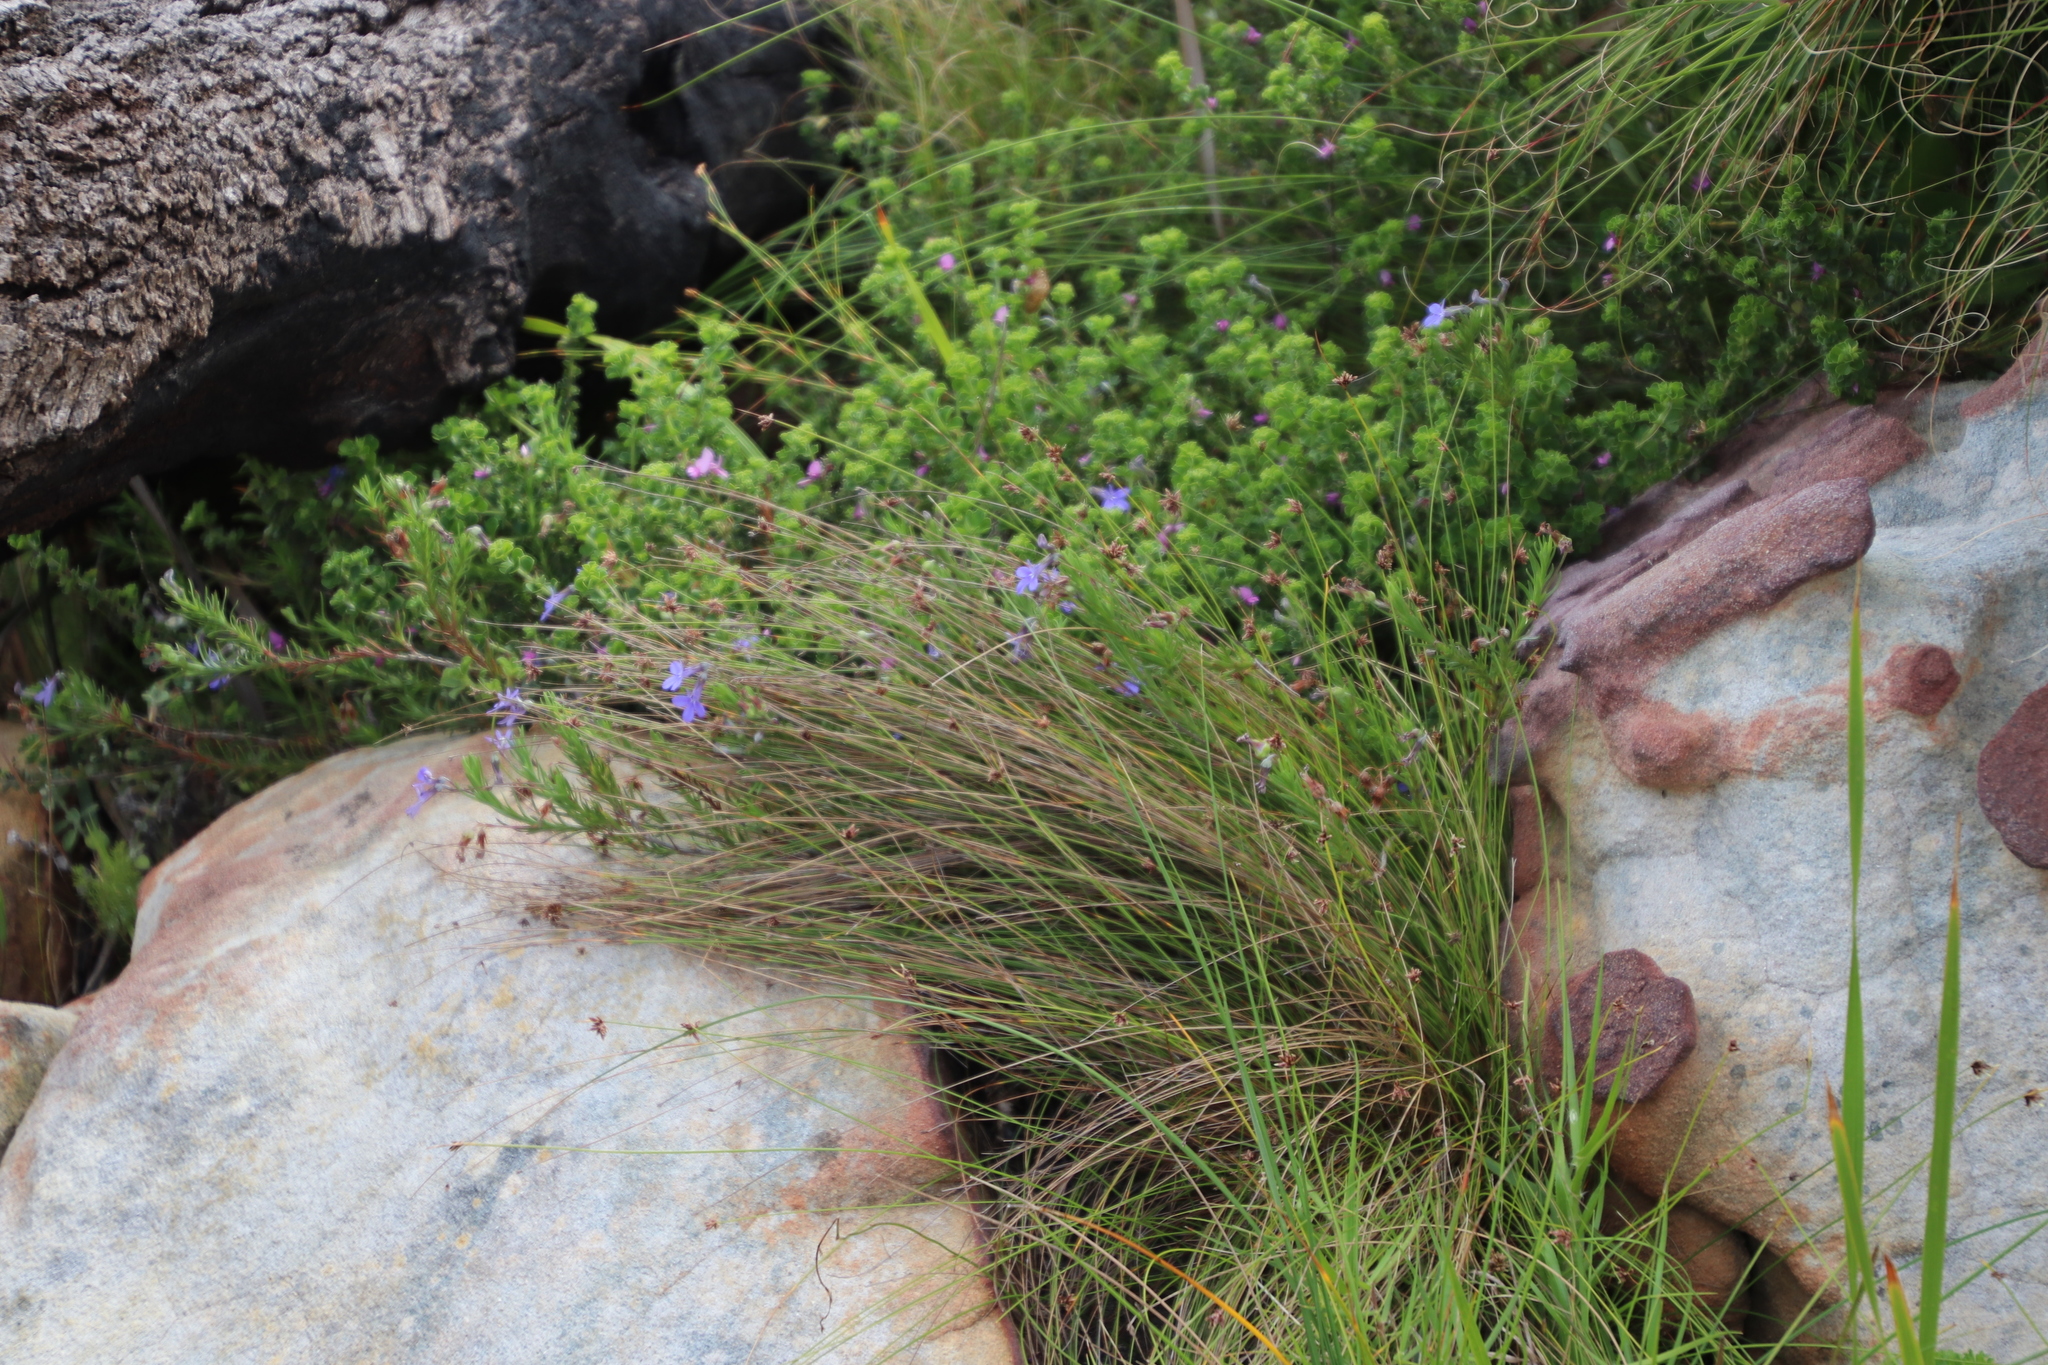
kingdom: Plantae
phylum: Tracheophyta
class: Magnoliopsida
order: Asterales
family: Campanulaceae
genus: Lobelia
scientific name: Lobelia pinifolia
